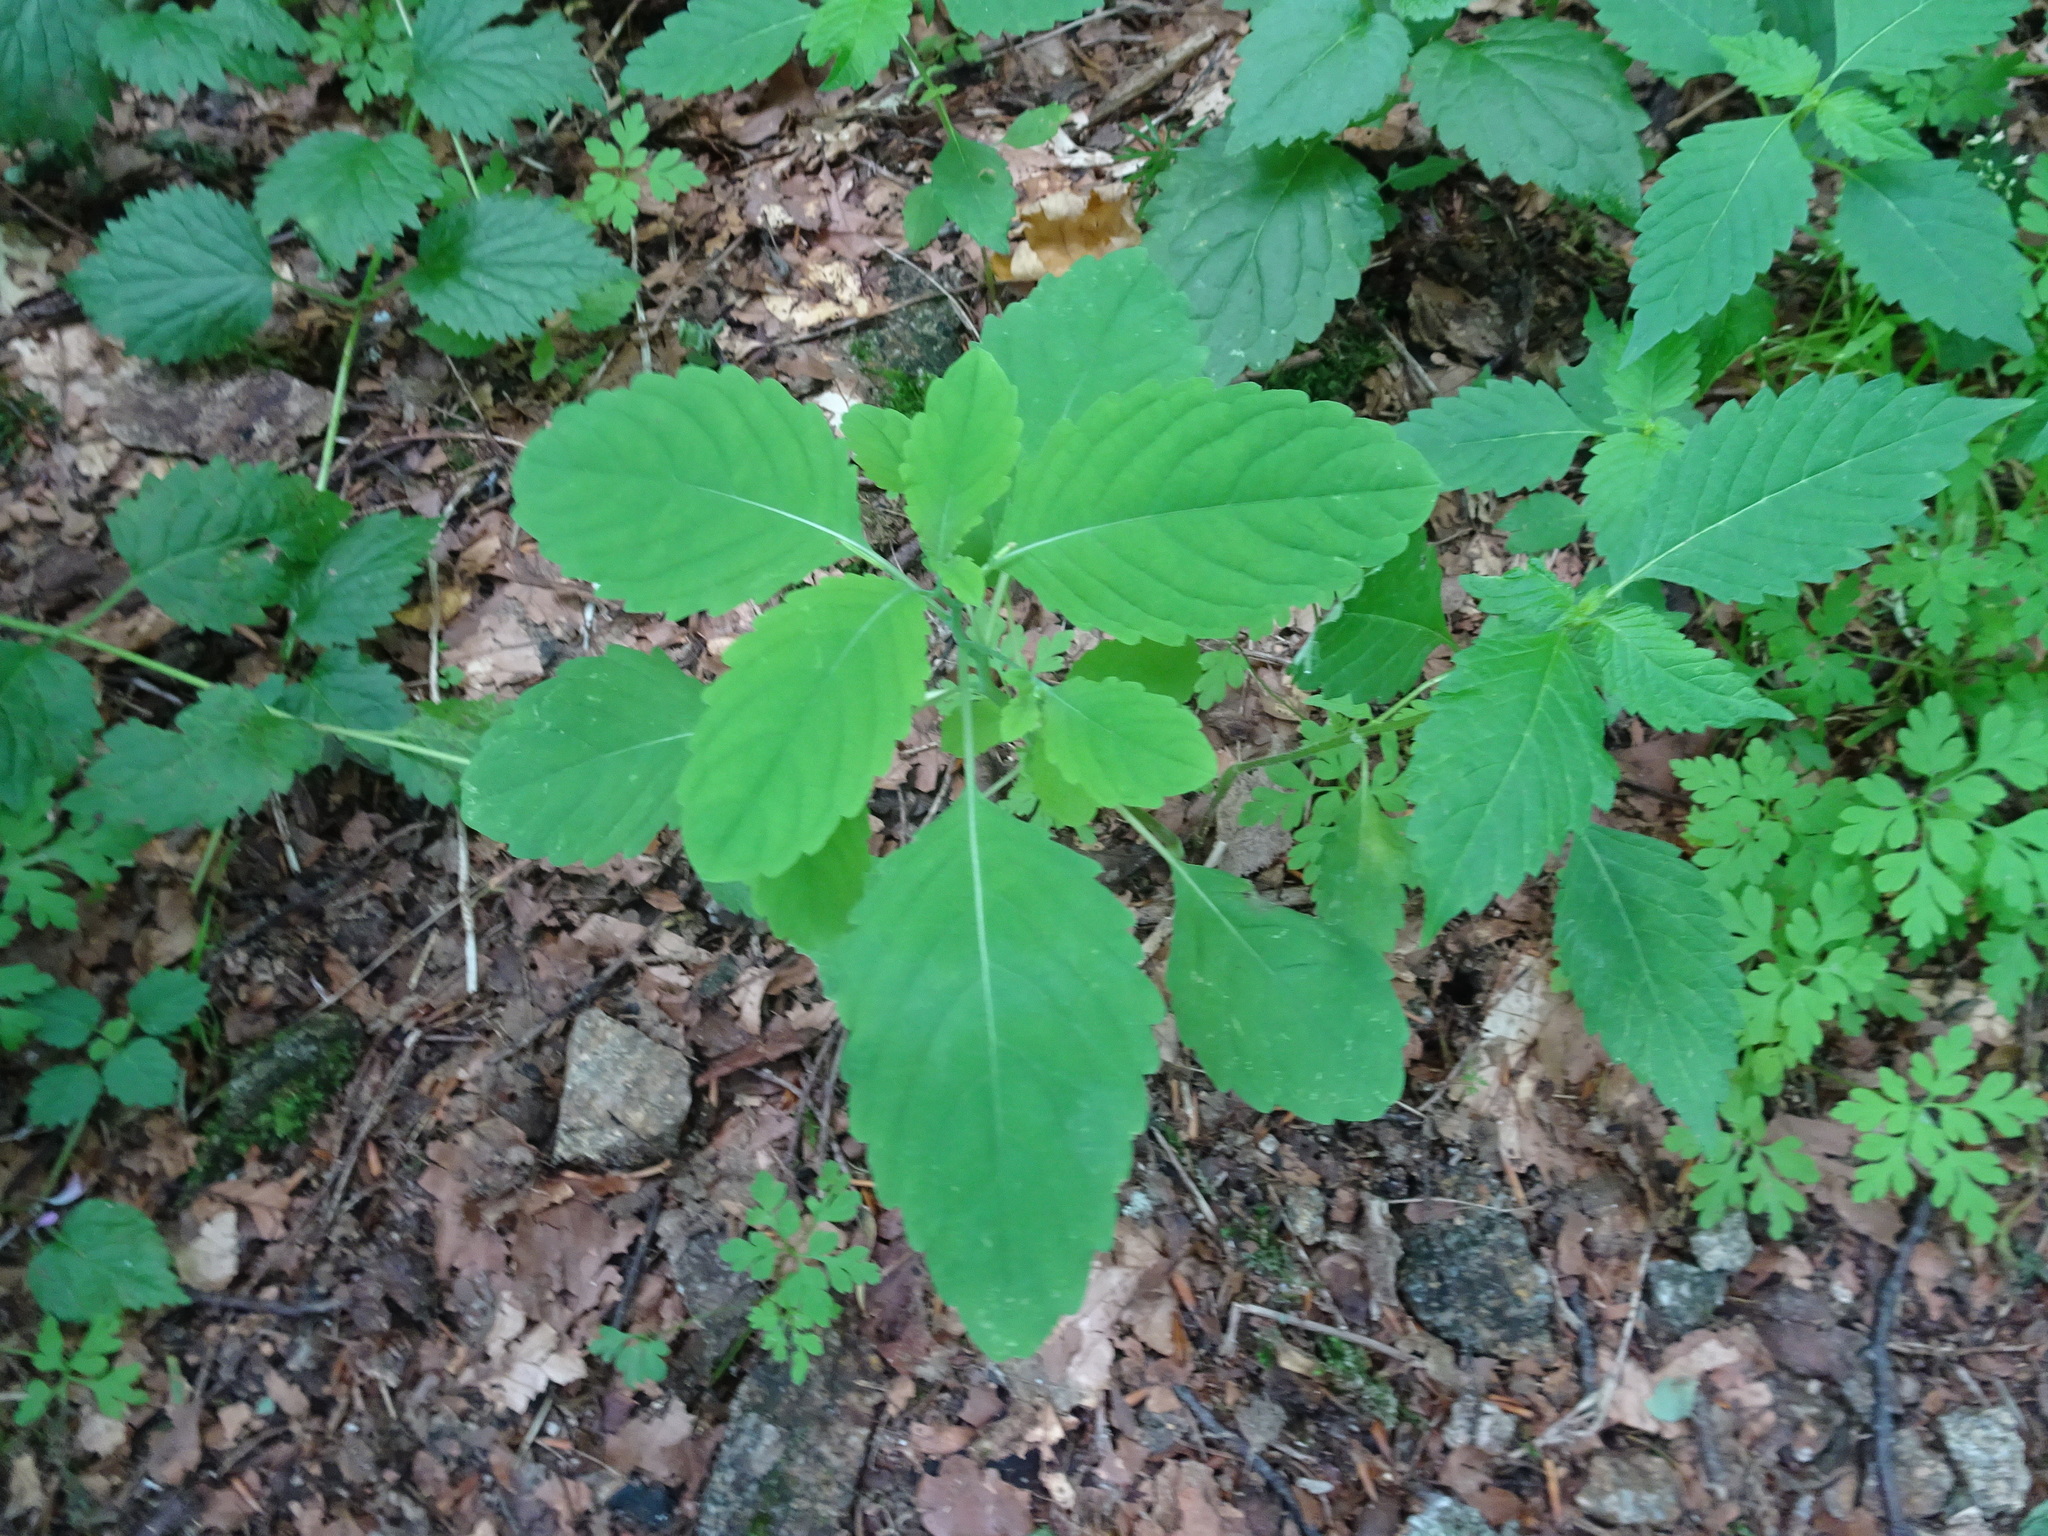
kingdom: Plantae
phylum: Tracheophyta
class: Magnoliopsida
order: Ericales
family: Balsaminaceae
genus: Impatiens
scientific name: Impatiens noli-tangere
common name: Touch-me-not balsam
